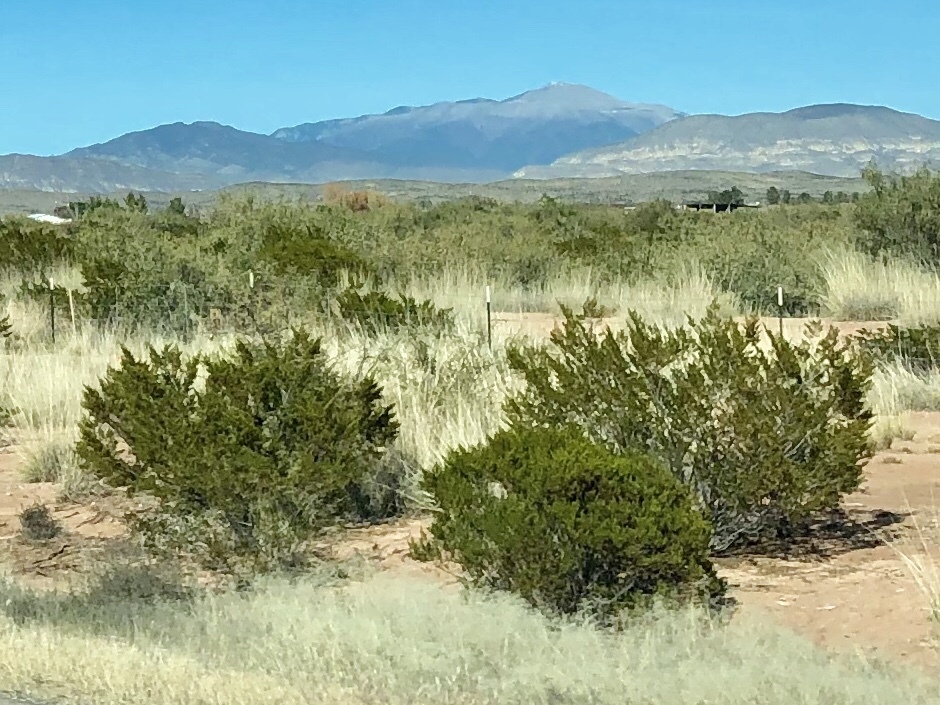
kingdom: Plantae
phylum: Tracheophyta
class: Magnoliopsida
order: Zygophyllales
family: Zygophyllaceae
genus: Larrea
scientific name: Larrea tridentata
